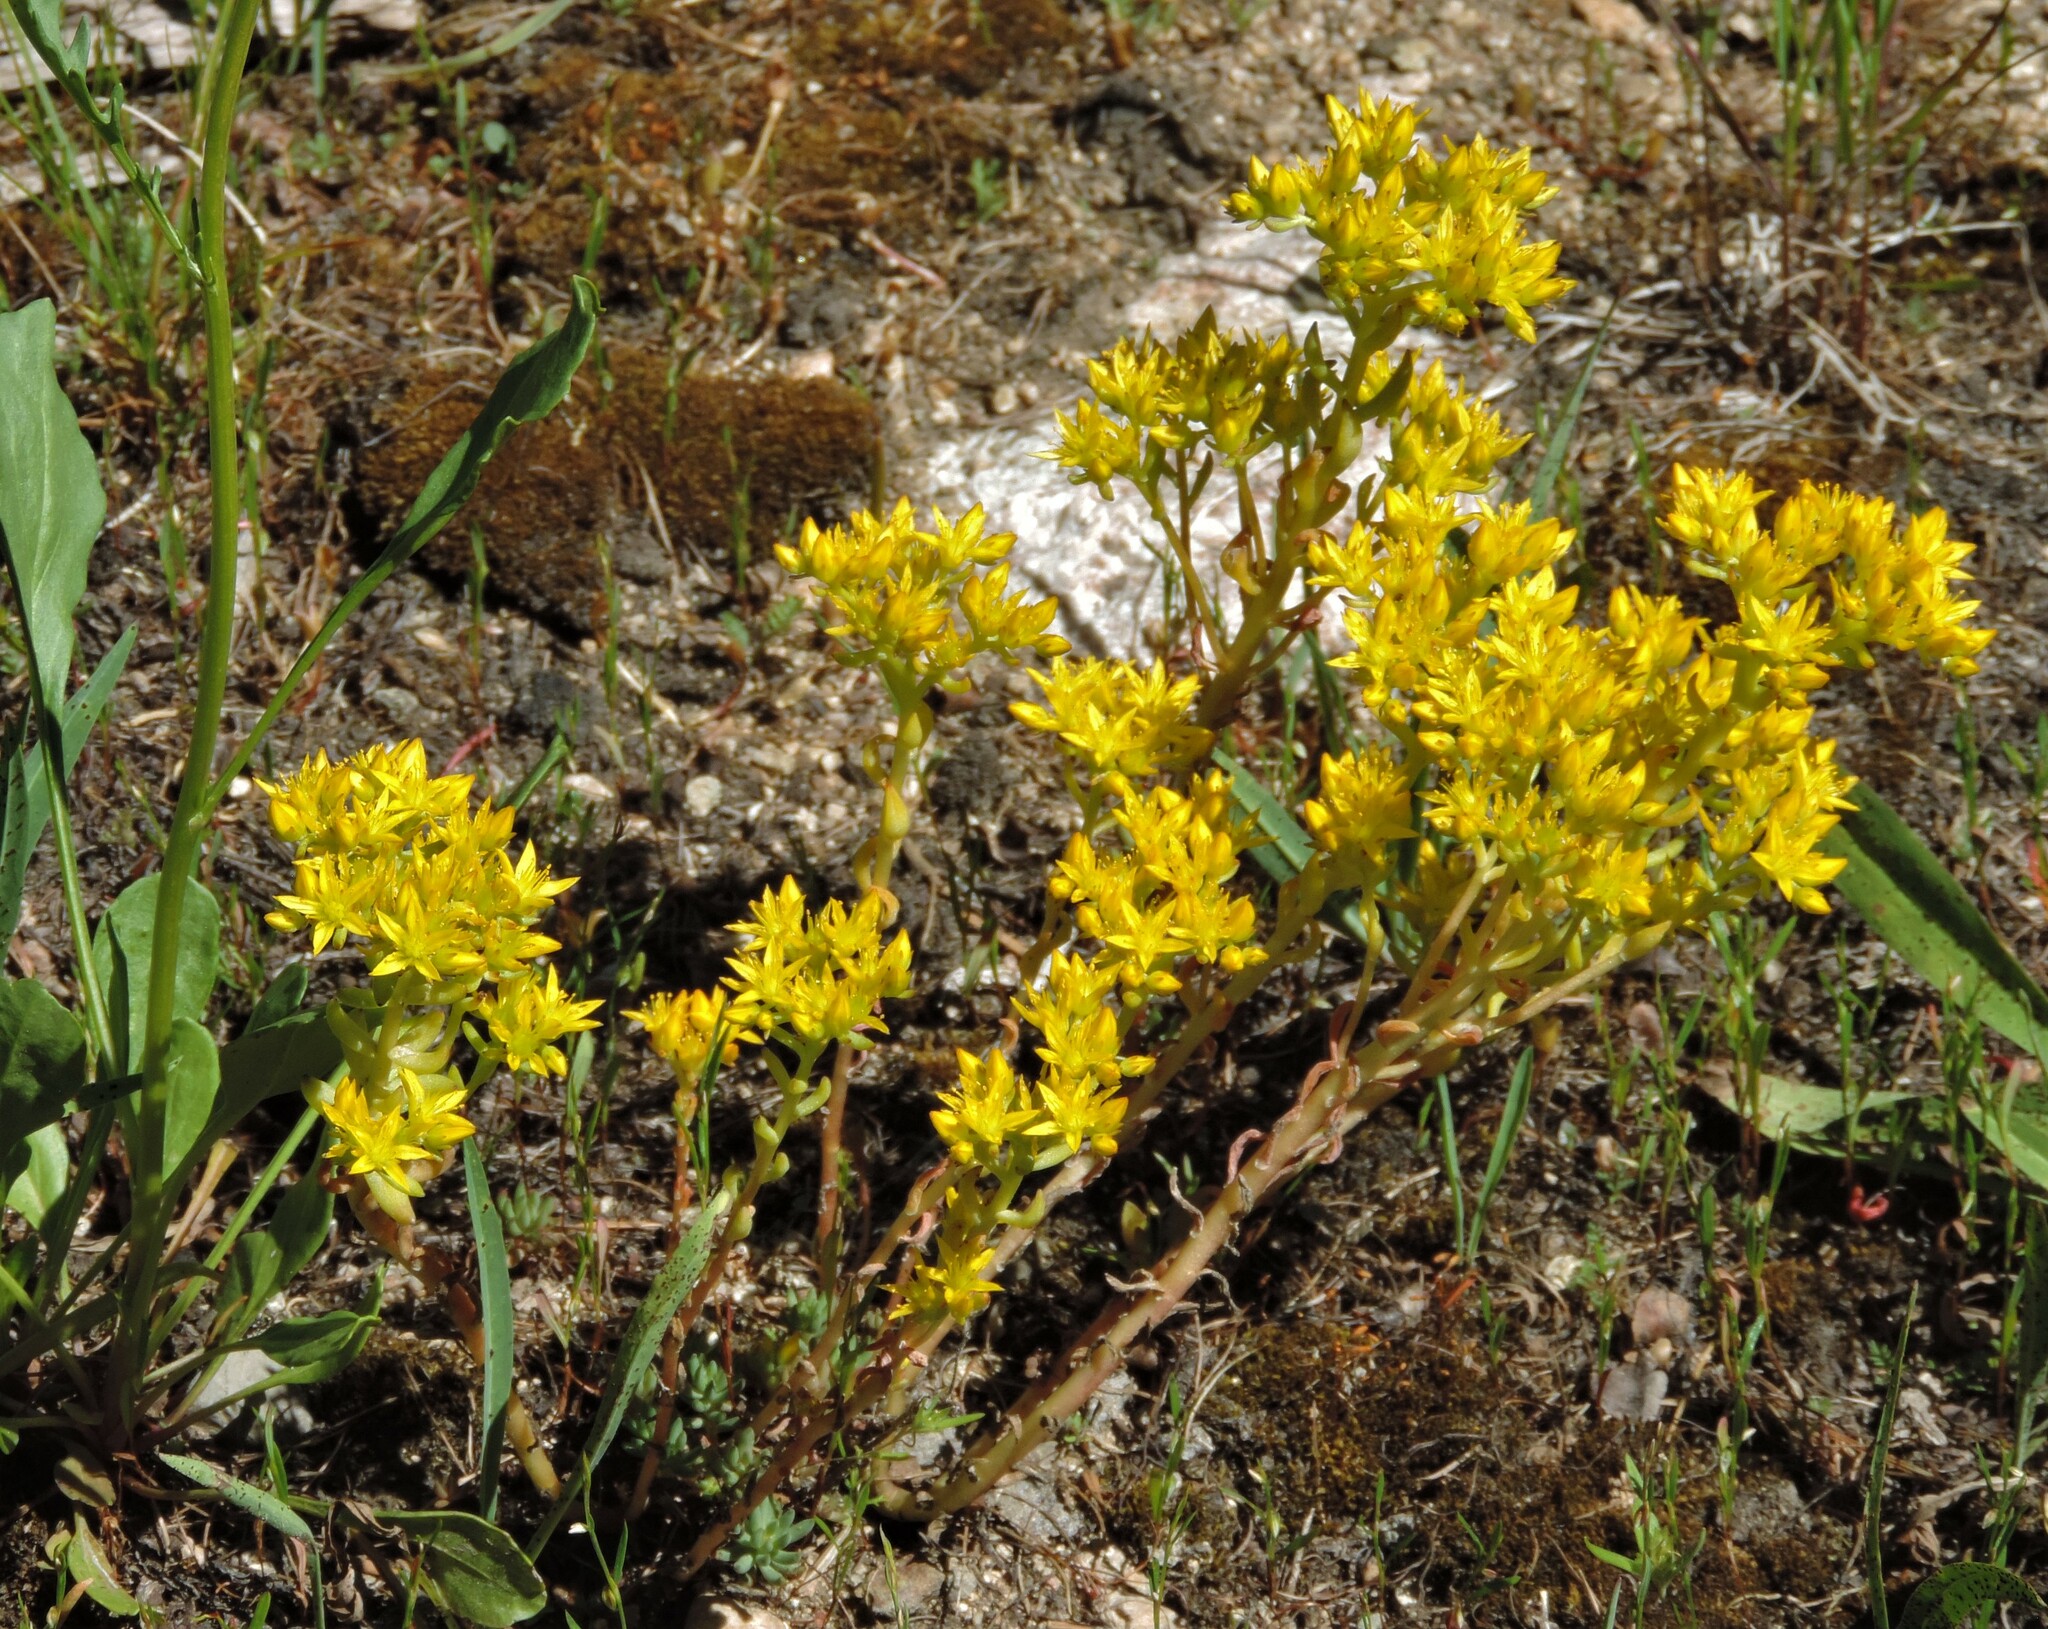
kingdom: Plantae
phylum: Tracheophyta
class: Magnoliopsida
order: Saxifragales
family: Crassulaceae
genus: Sedum
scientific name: Sedum lanceolatum
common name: Common stonecrop
